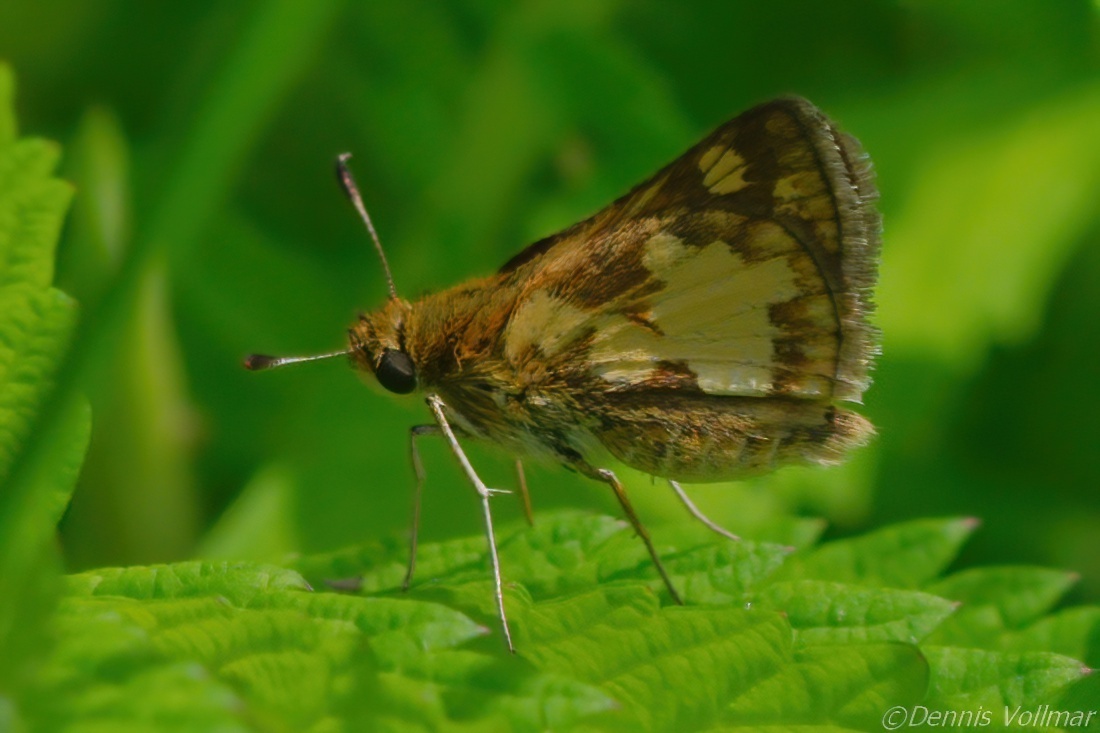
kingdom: Animalia
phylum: Arthropoda
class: Insecta
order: Lepidoptera
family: Hesperiidae
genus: Polites
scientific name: Polites coras
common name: Peck's skipper
